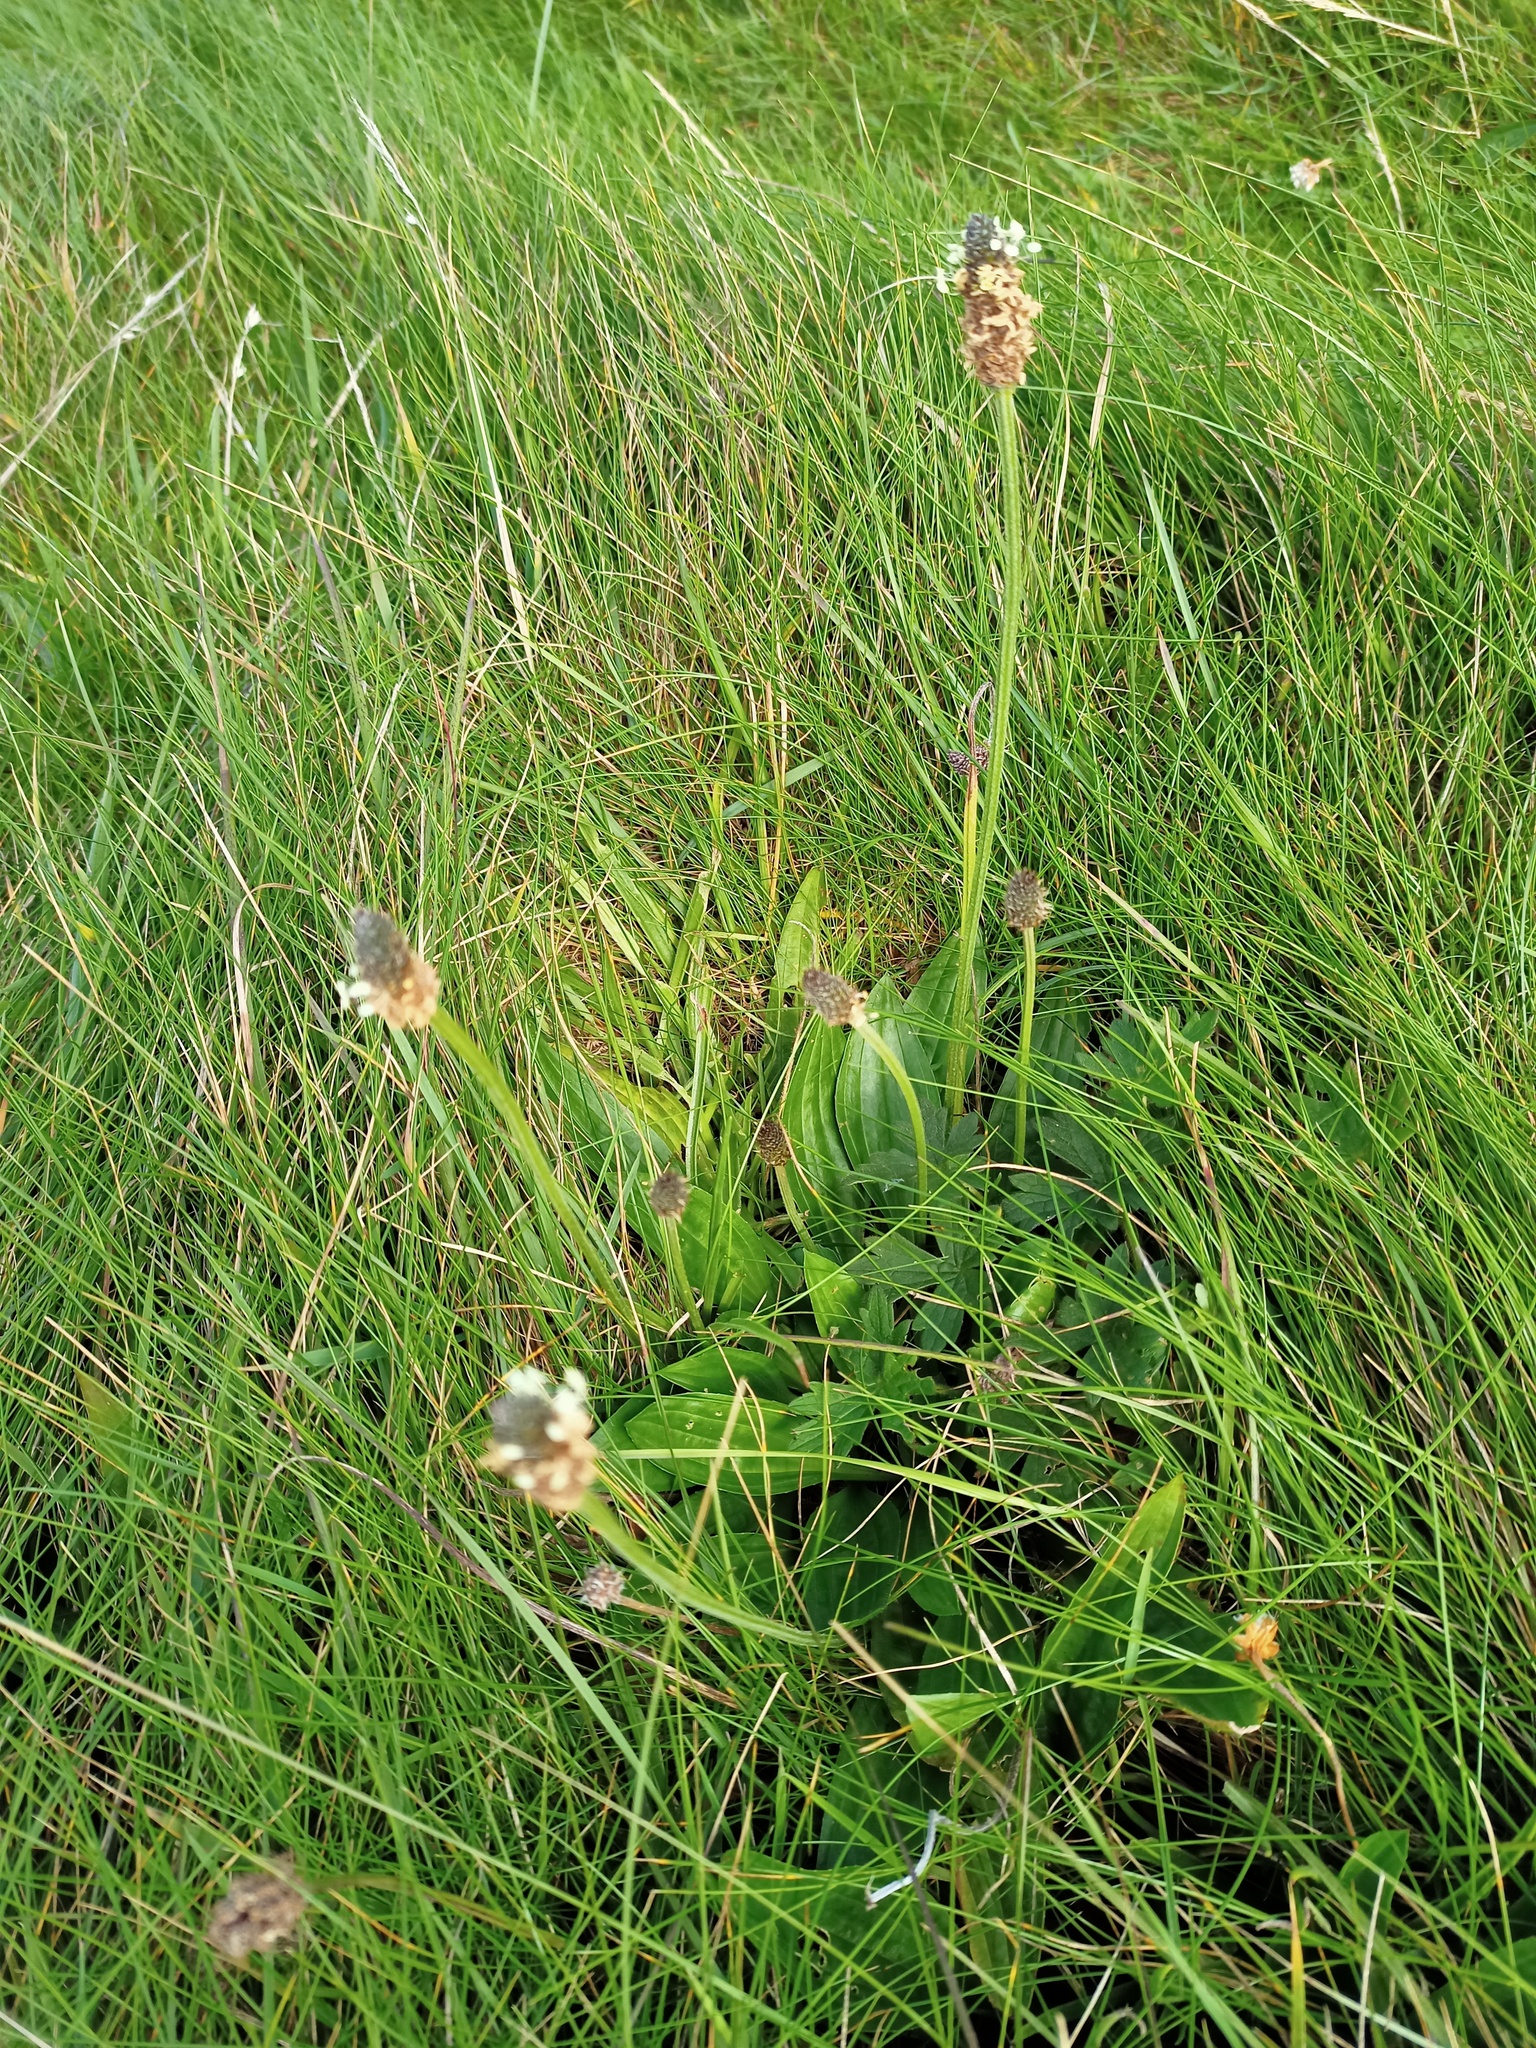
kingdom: Plantae
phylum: Tracheophyta
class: Magnoliopsida
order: Lamiales
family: Plantaginaceae
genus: Plantago
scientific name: Plantago lanceolata
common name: Ribwort plantain
